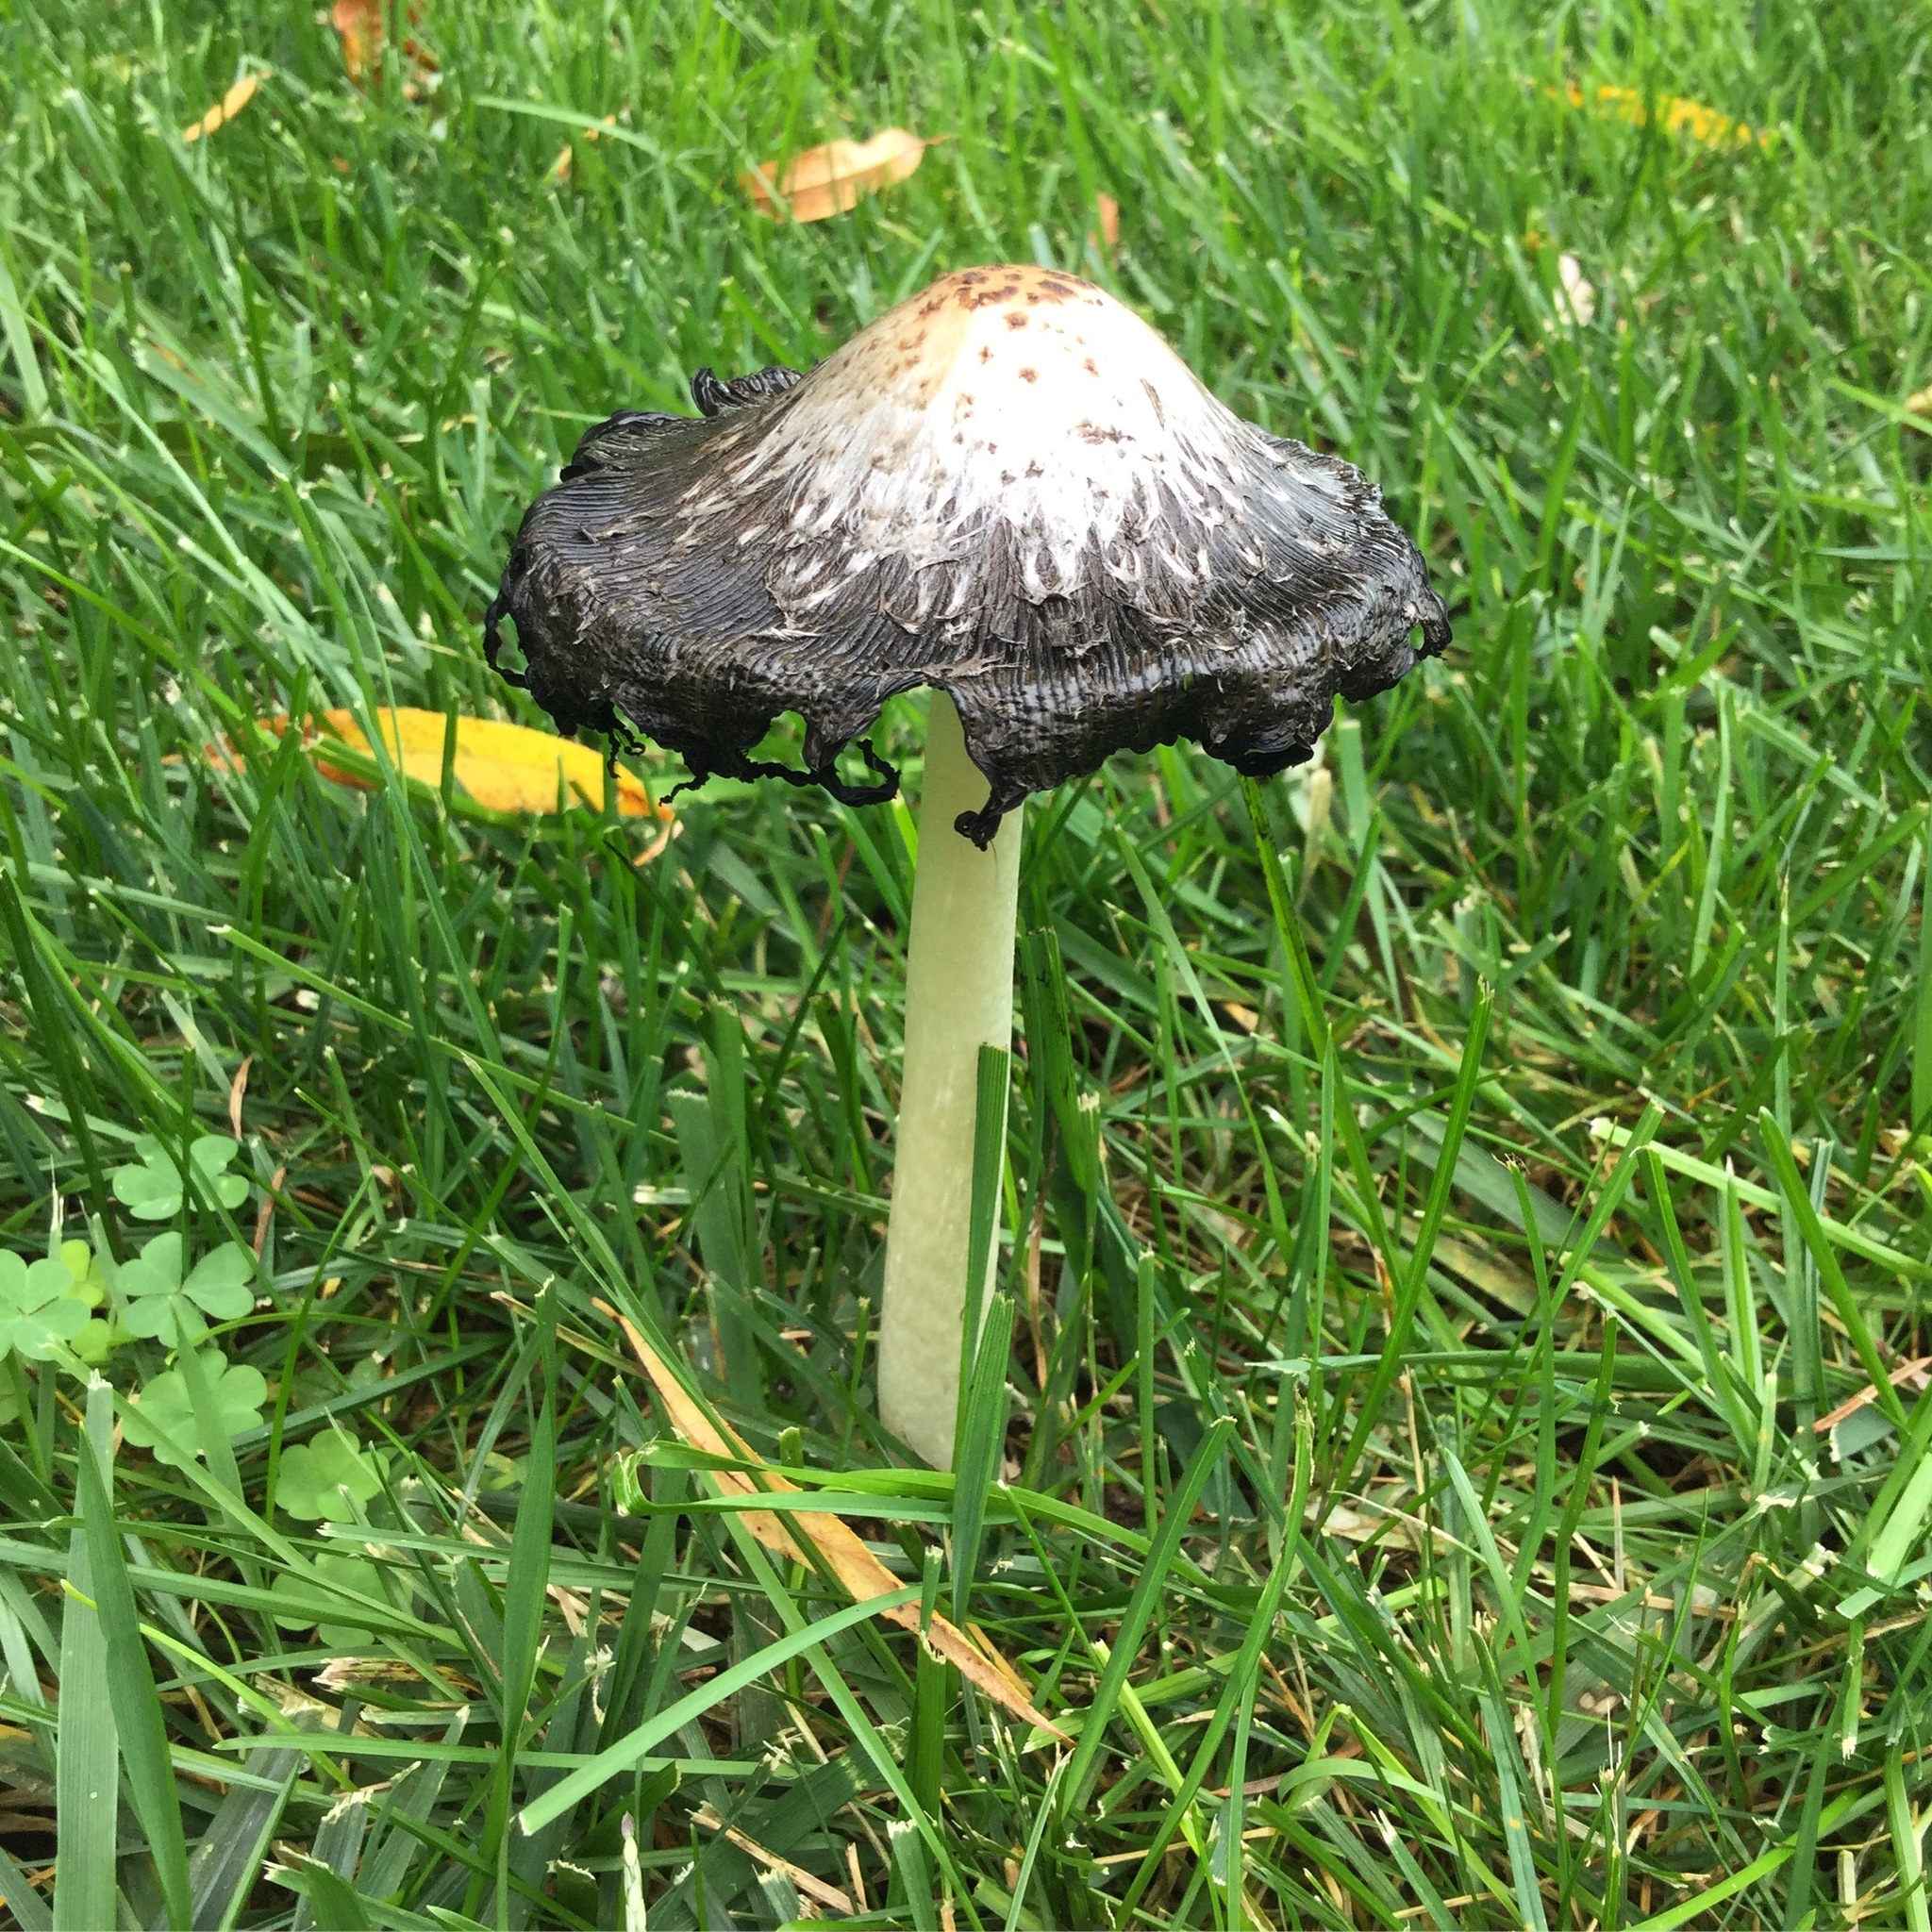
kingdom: Fungi
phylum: Basidiomycota
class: Agaricomycetes
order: Agaricales
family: Agaricaceae
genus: Coprinus
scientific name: Coprinus comatus
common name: Lawyer's wig
